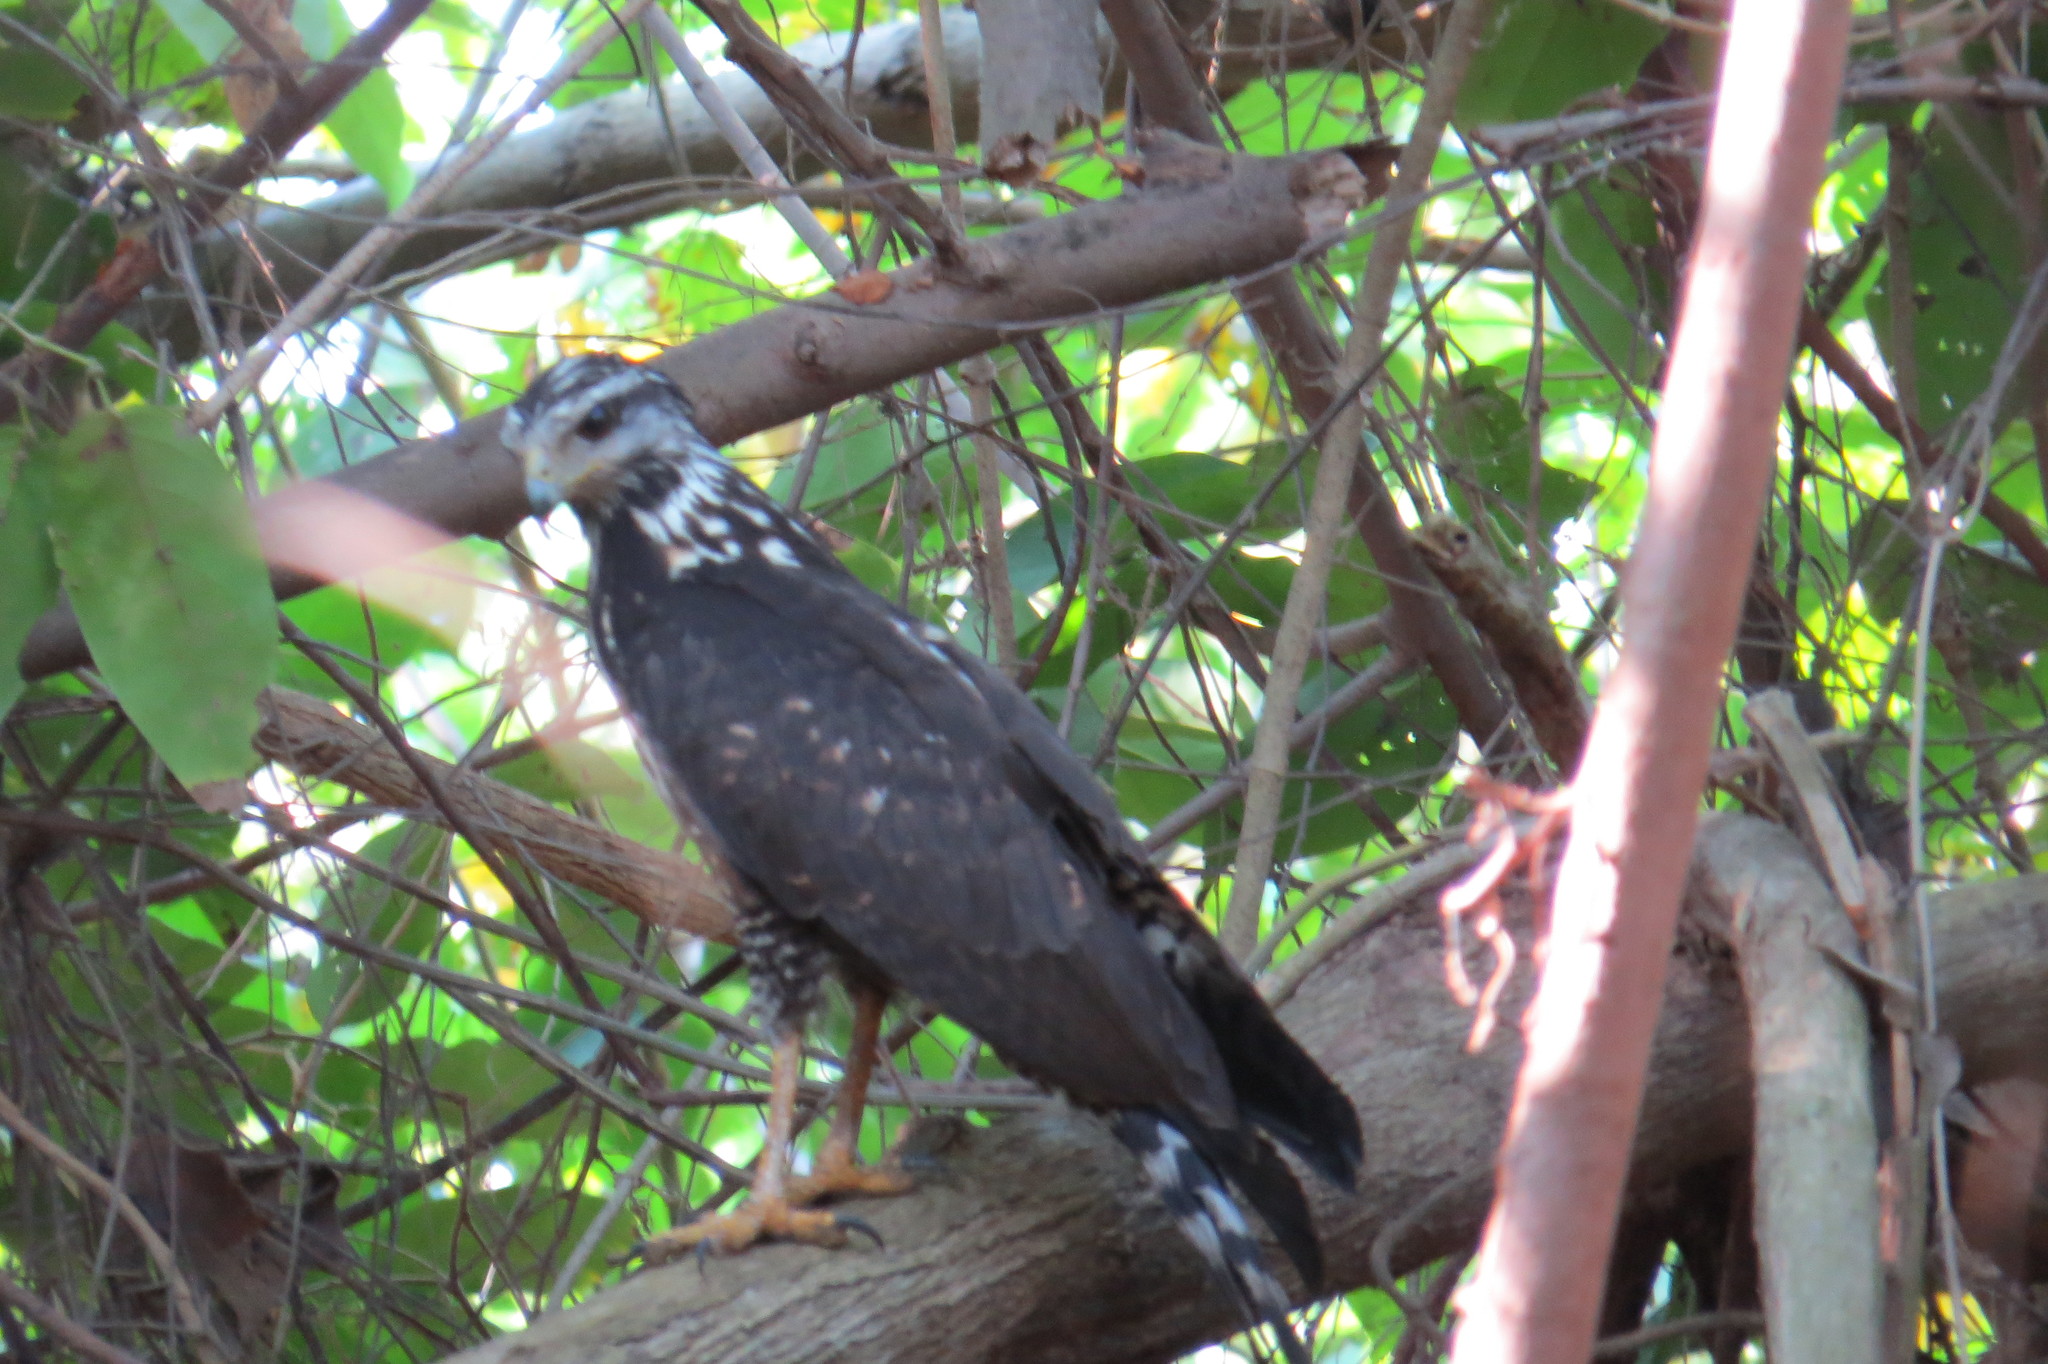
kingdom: Animalia
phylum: Chordata
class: Aves
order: Accipitriformes
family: Accipitridae
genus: Buteogallus
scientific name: Buteogallus anthracinus
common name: Common black hawk
